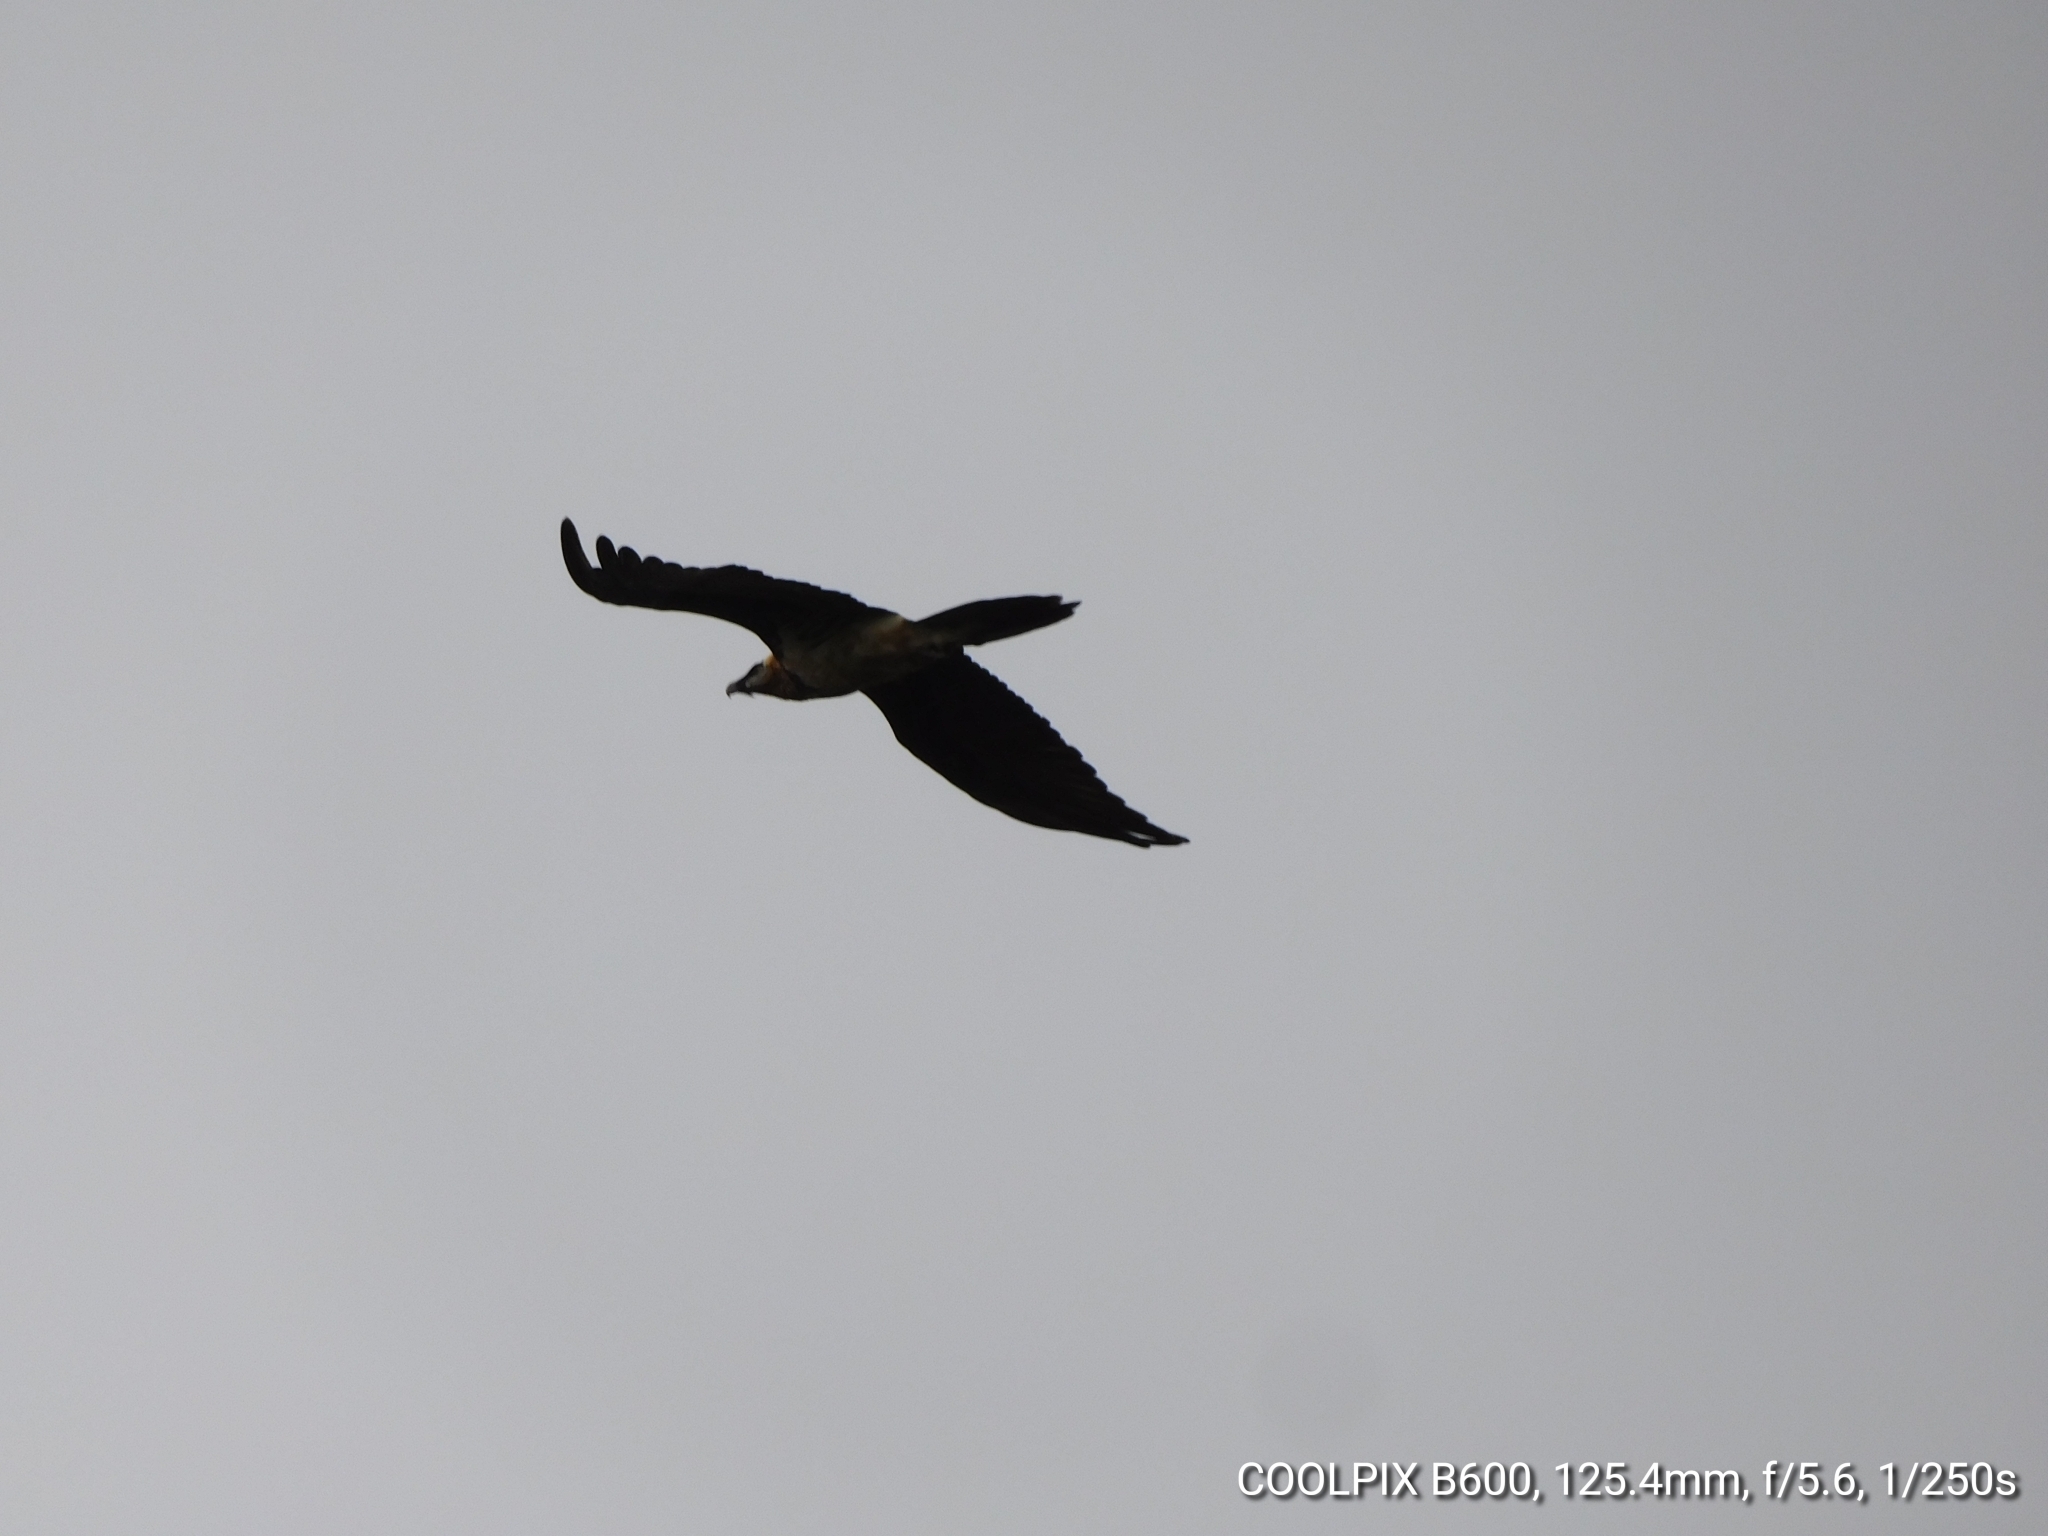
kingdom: Animalia
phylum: Chordata
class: Aves
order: Accipitriformes
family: Accipitridae
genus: Gypaetus
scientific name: Gypaetus barbatus
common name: Bearded vulture
